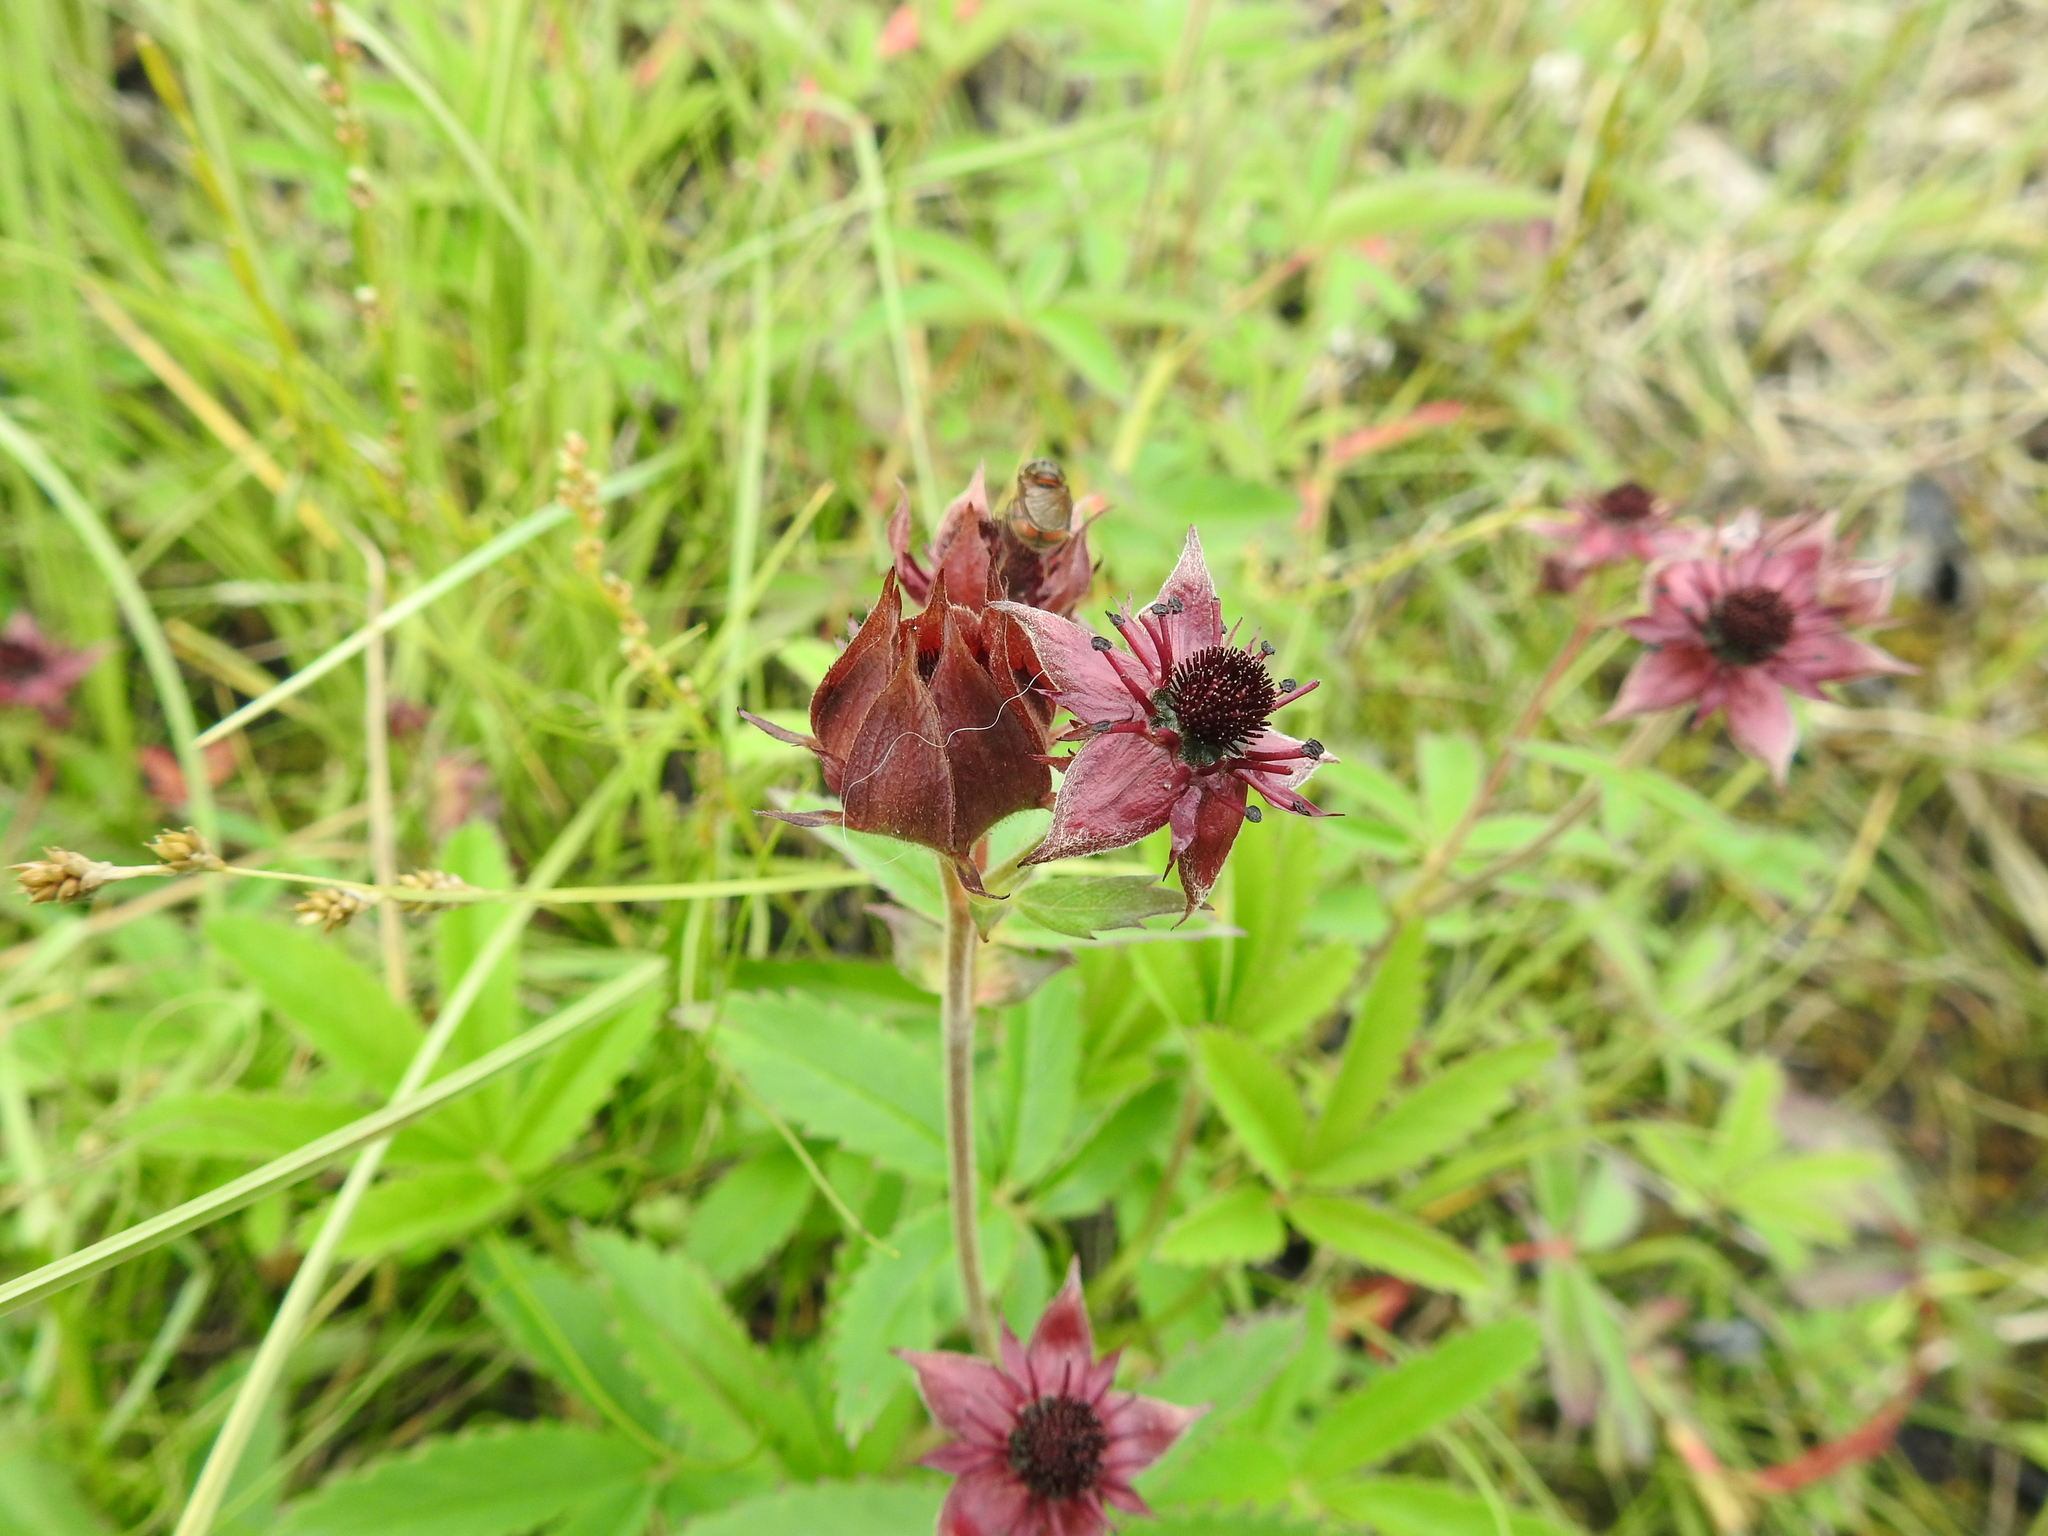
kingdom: Plantae
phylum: Tracheophyta
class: Magnoliopsida
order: Rosales
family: Rosaceae
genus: Comarum
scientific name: Comarum palustre
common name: Marsh cinquefoil
